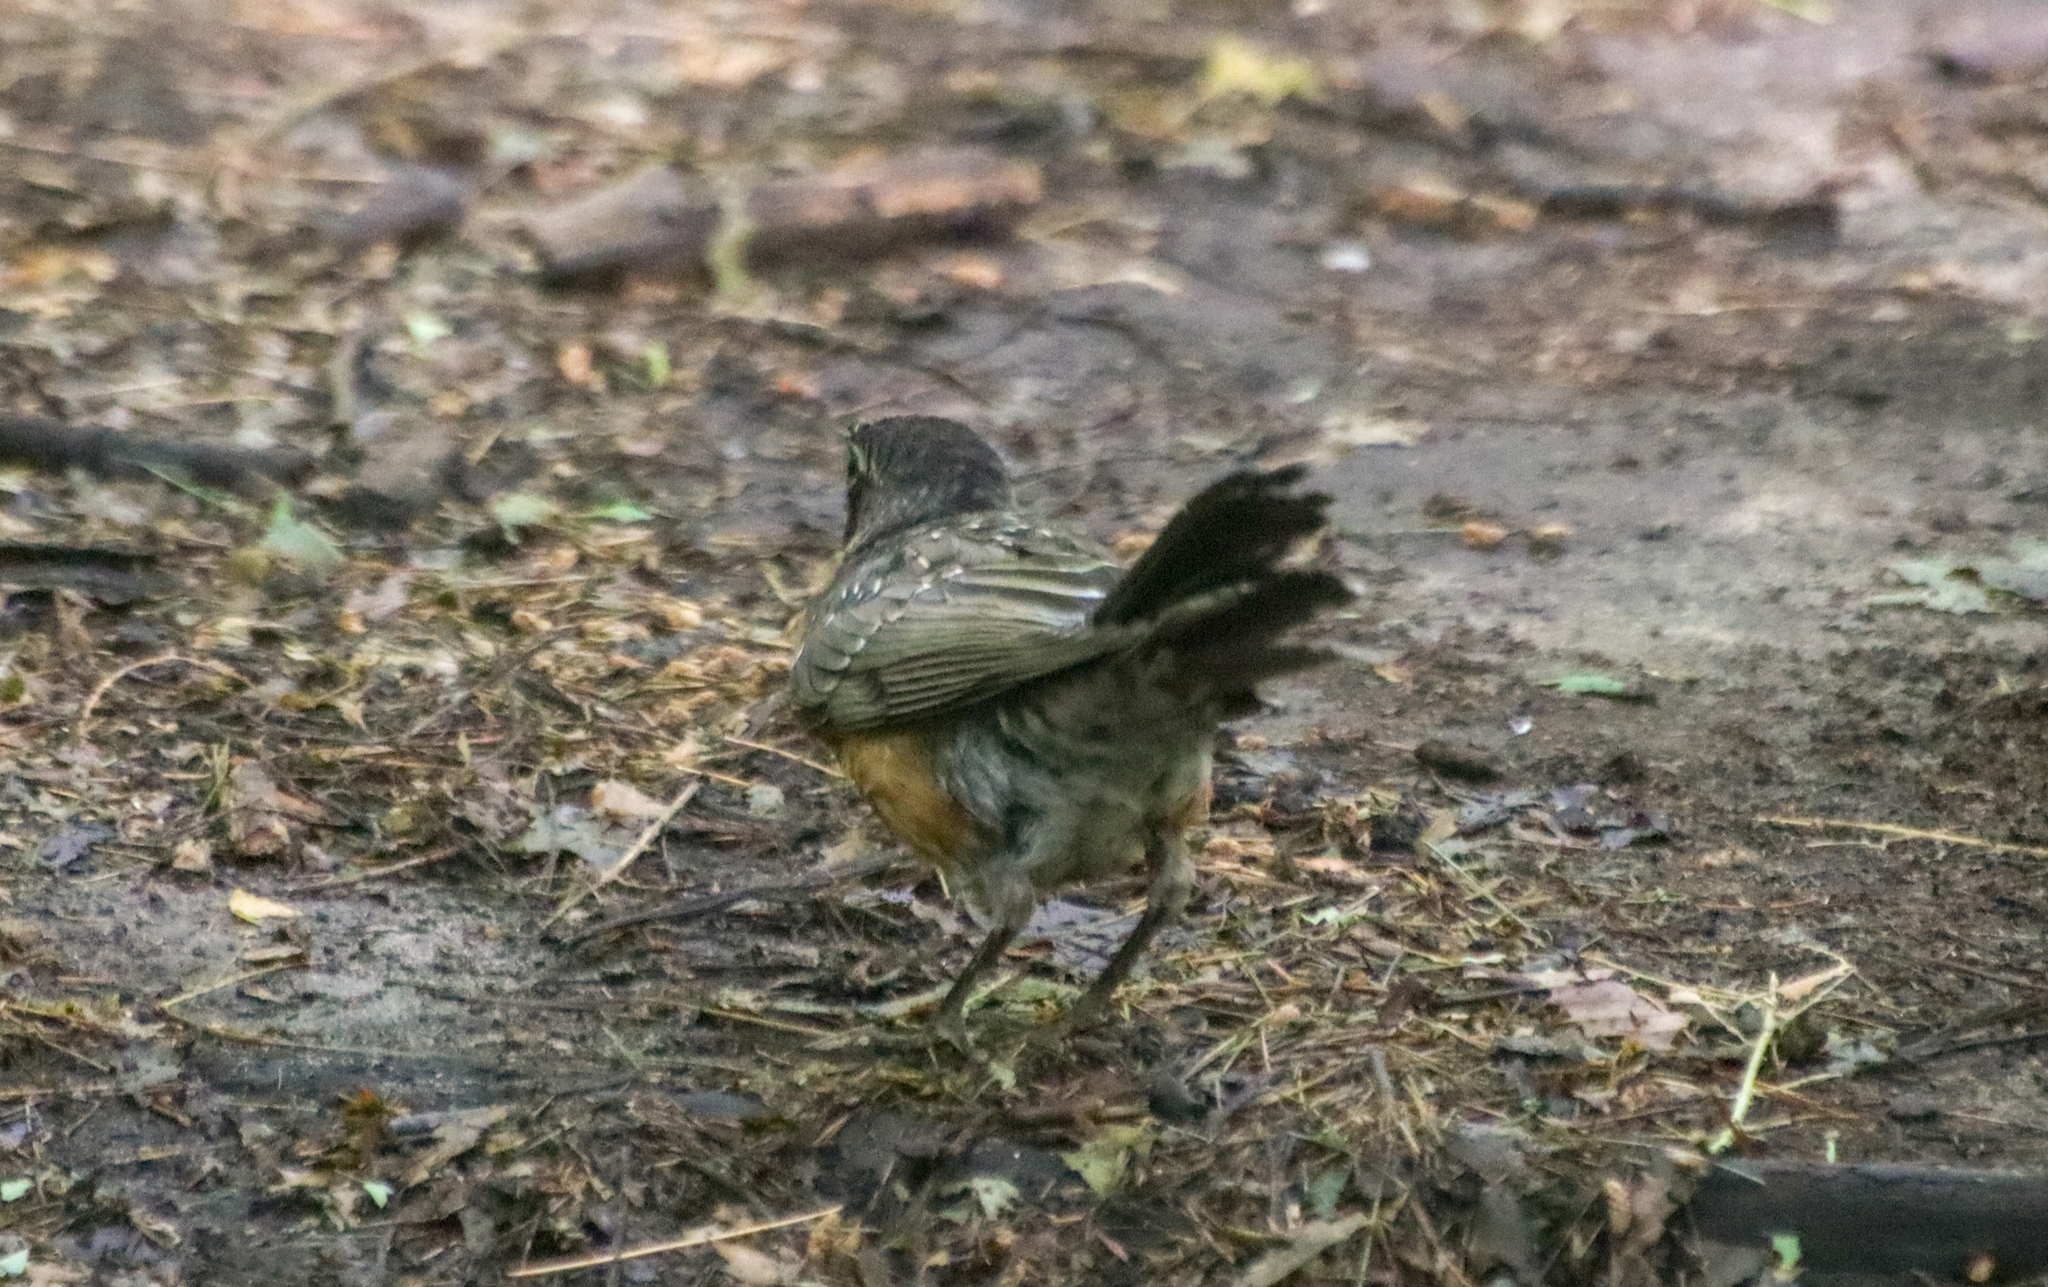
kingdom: Animalia
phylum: Chordata
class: Aves
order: Passeriformes
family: Turdidae
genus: Turdus
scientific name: Turdus migratorius
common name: American robin
